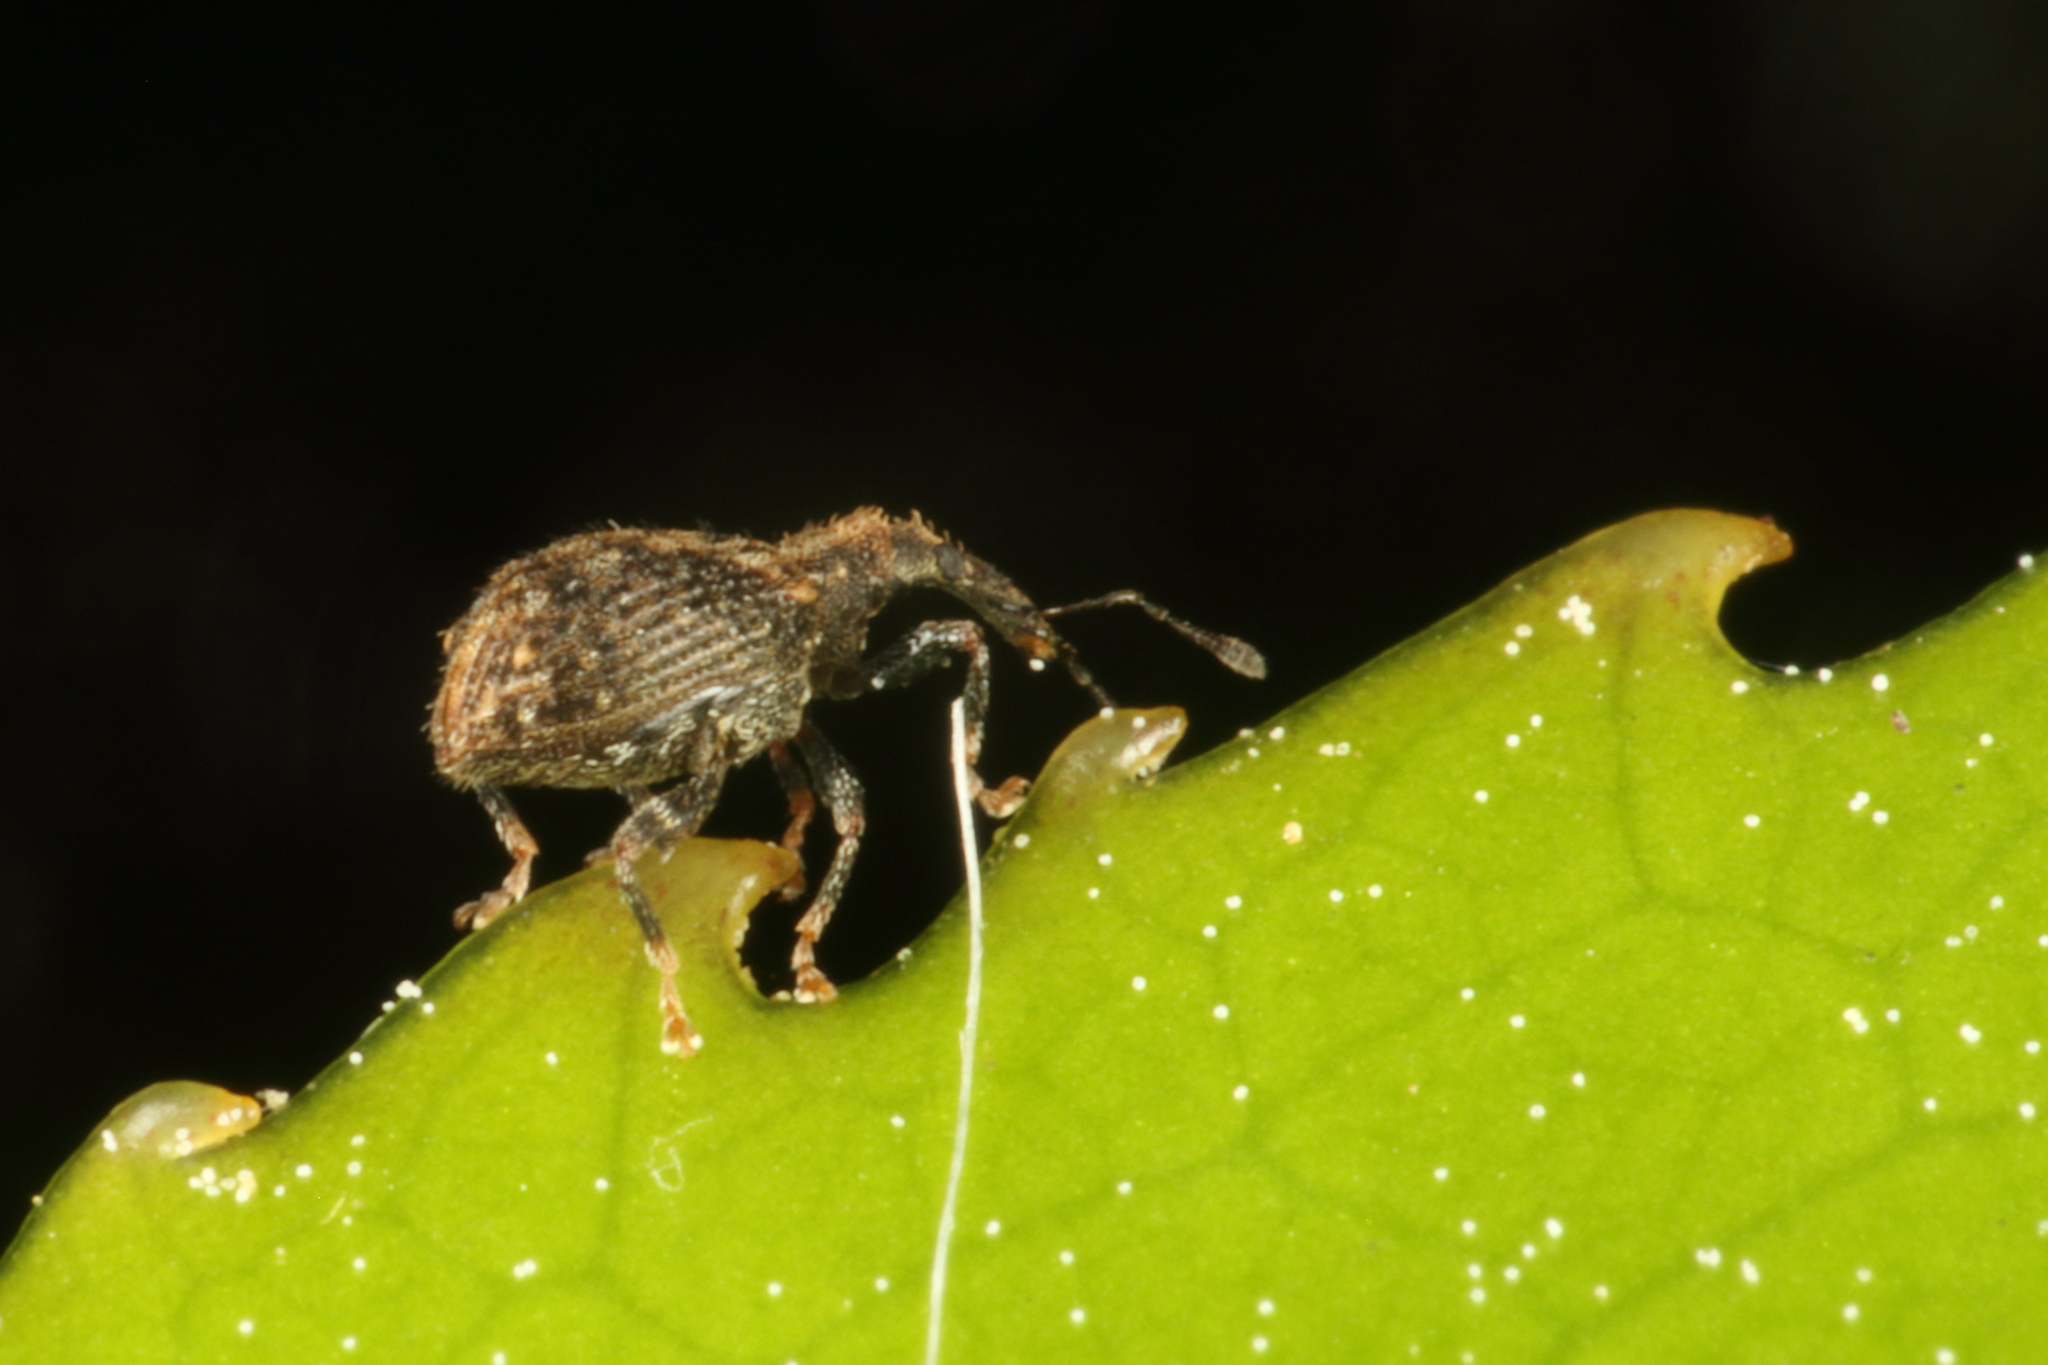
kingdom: Animalia
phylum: Arthropoda
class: Insecta
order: Coleoptera
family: Curculionidae
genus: Tysius
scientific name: Tysius bicornis
